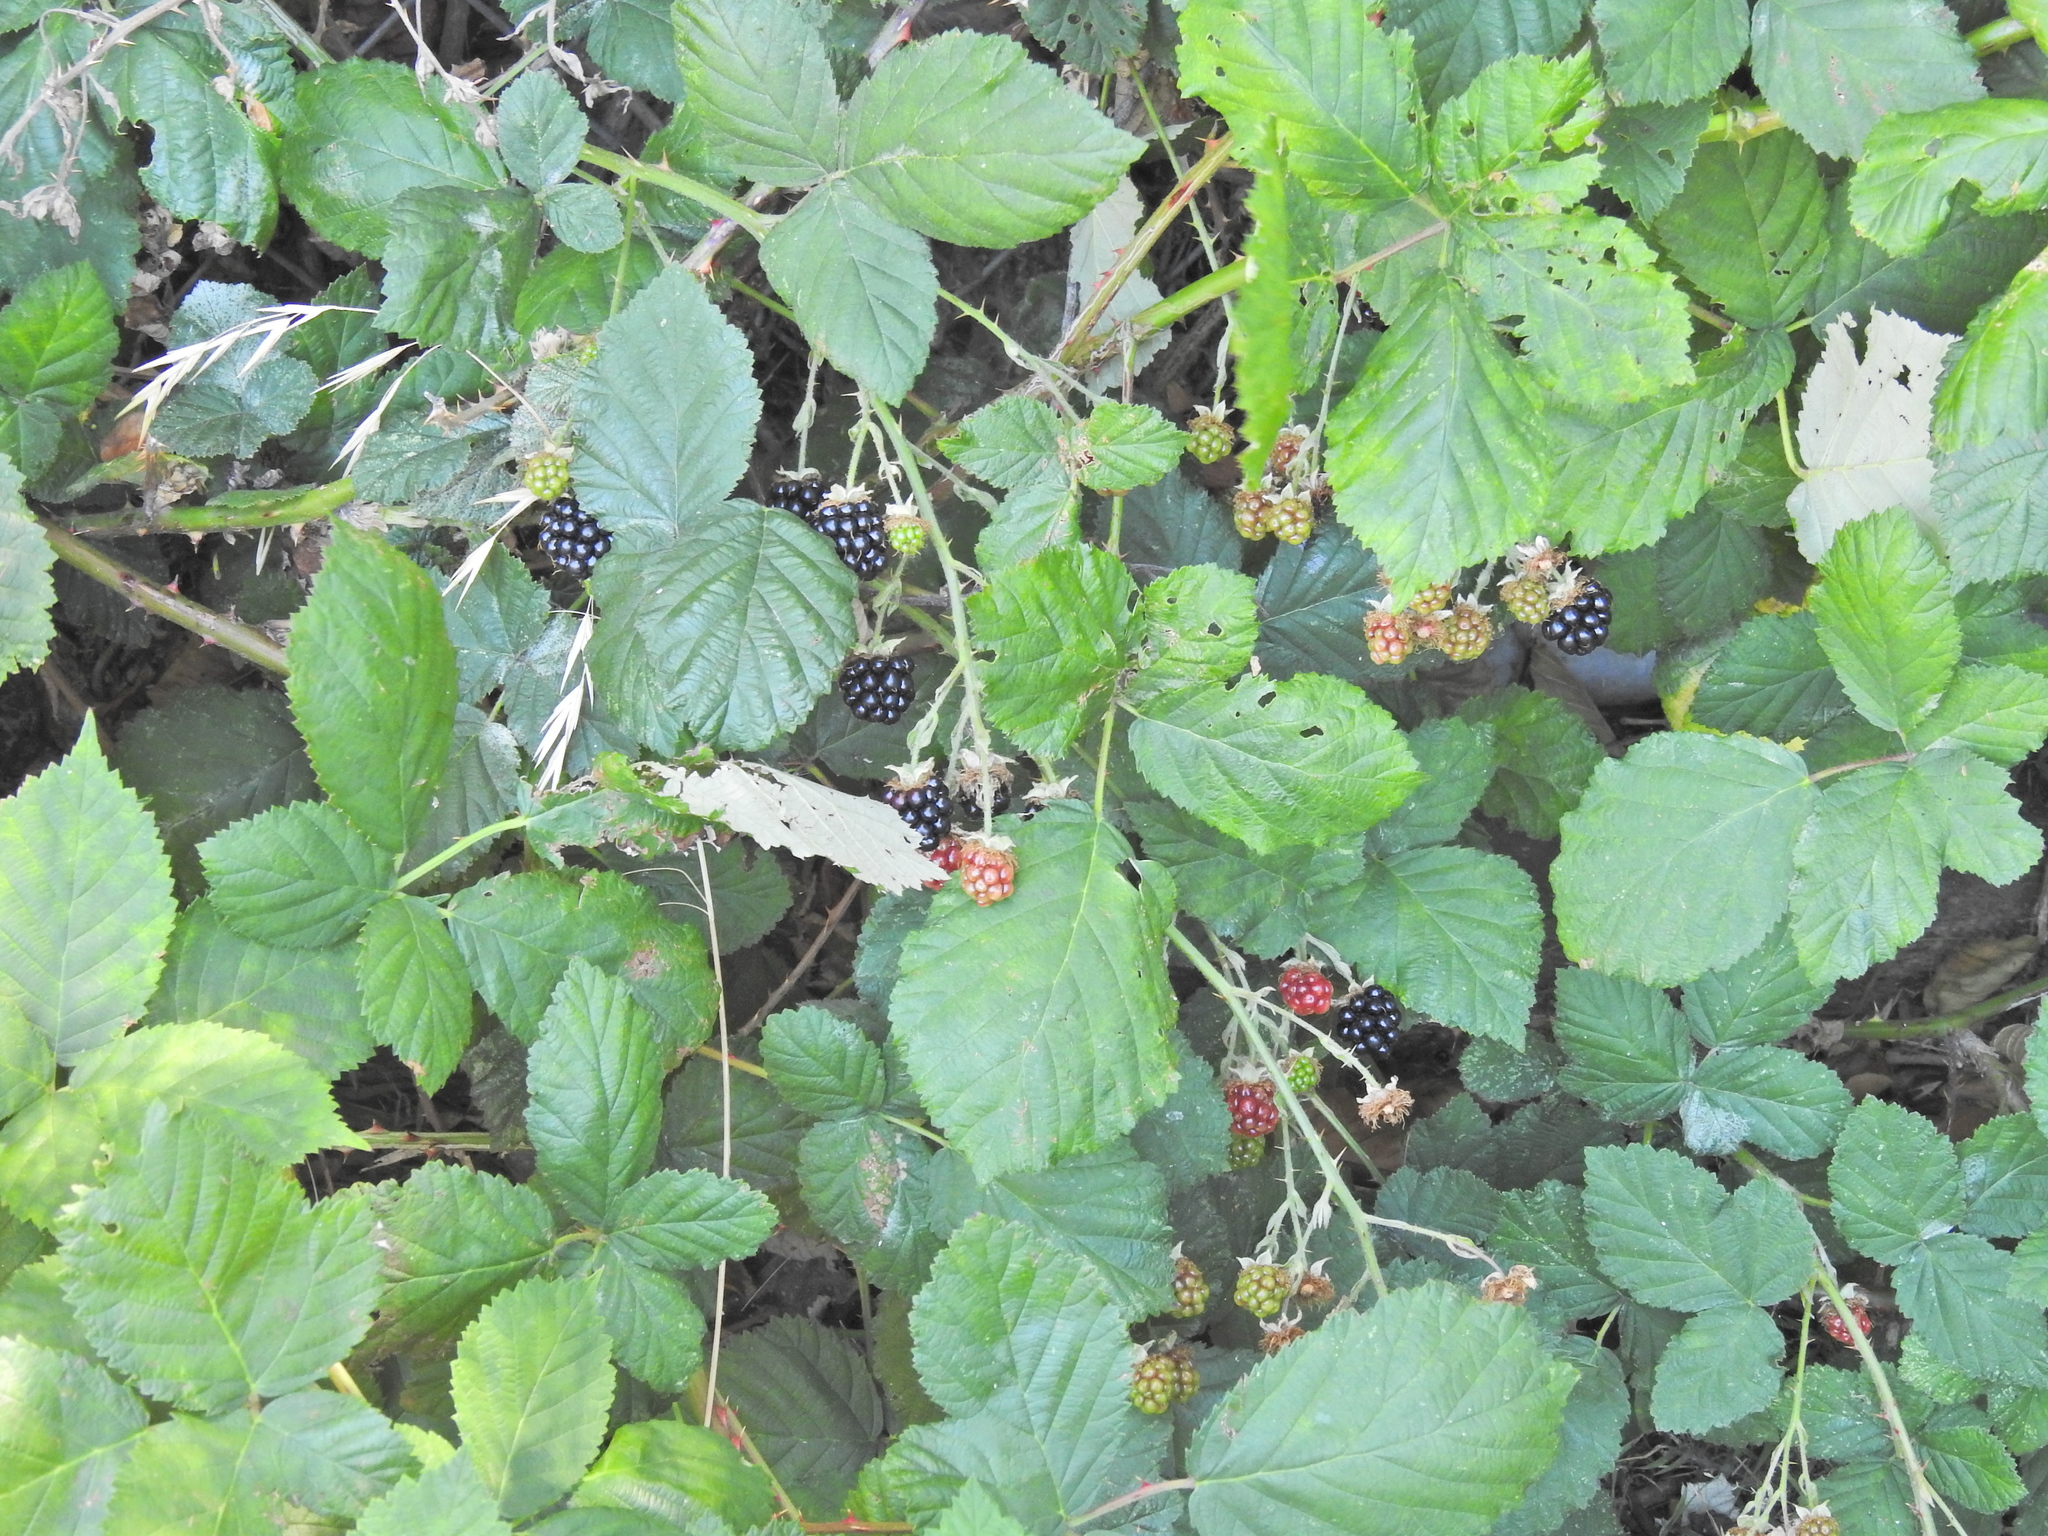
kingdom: Plantae
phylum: Tracheophyta
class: Magnoliopsida
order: Rosales
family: Rosaceae
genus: Rubus
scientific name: Rubus armeniacus
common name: Himalayan blackberry
